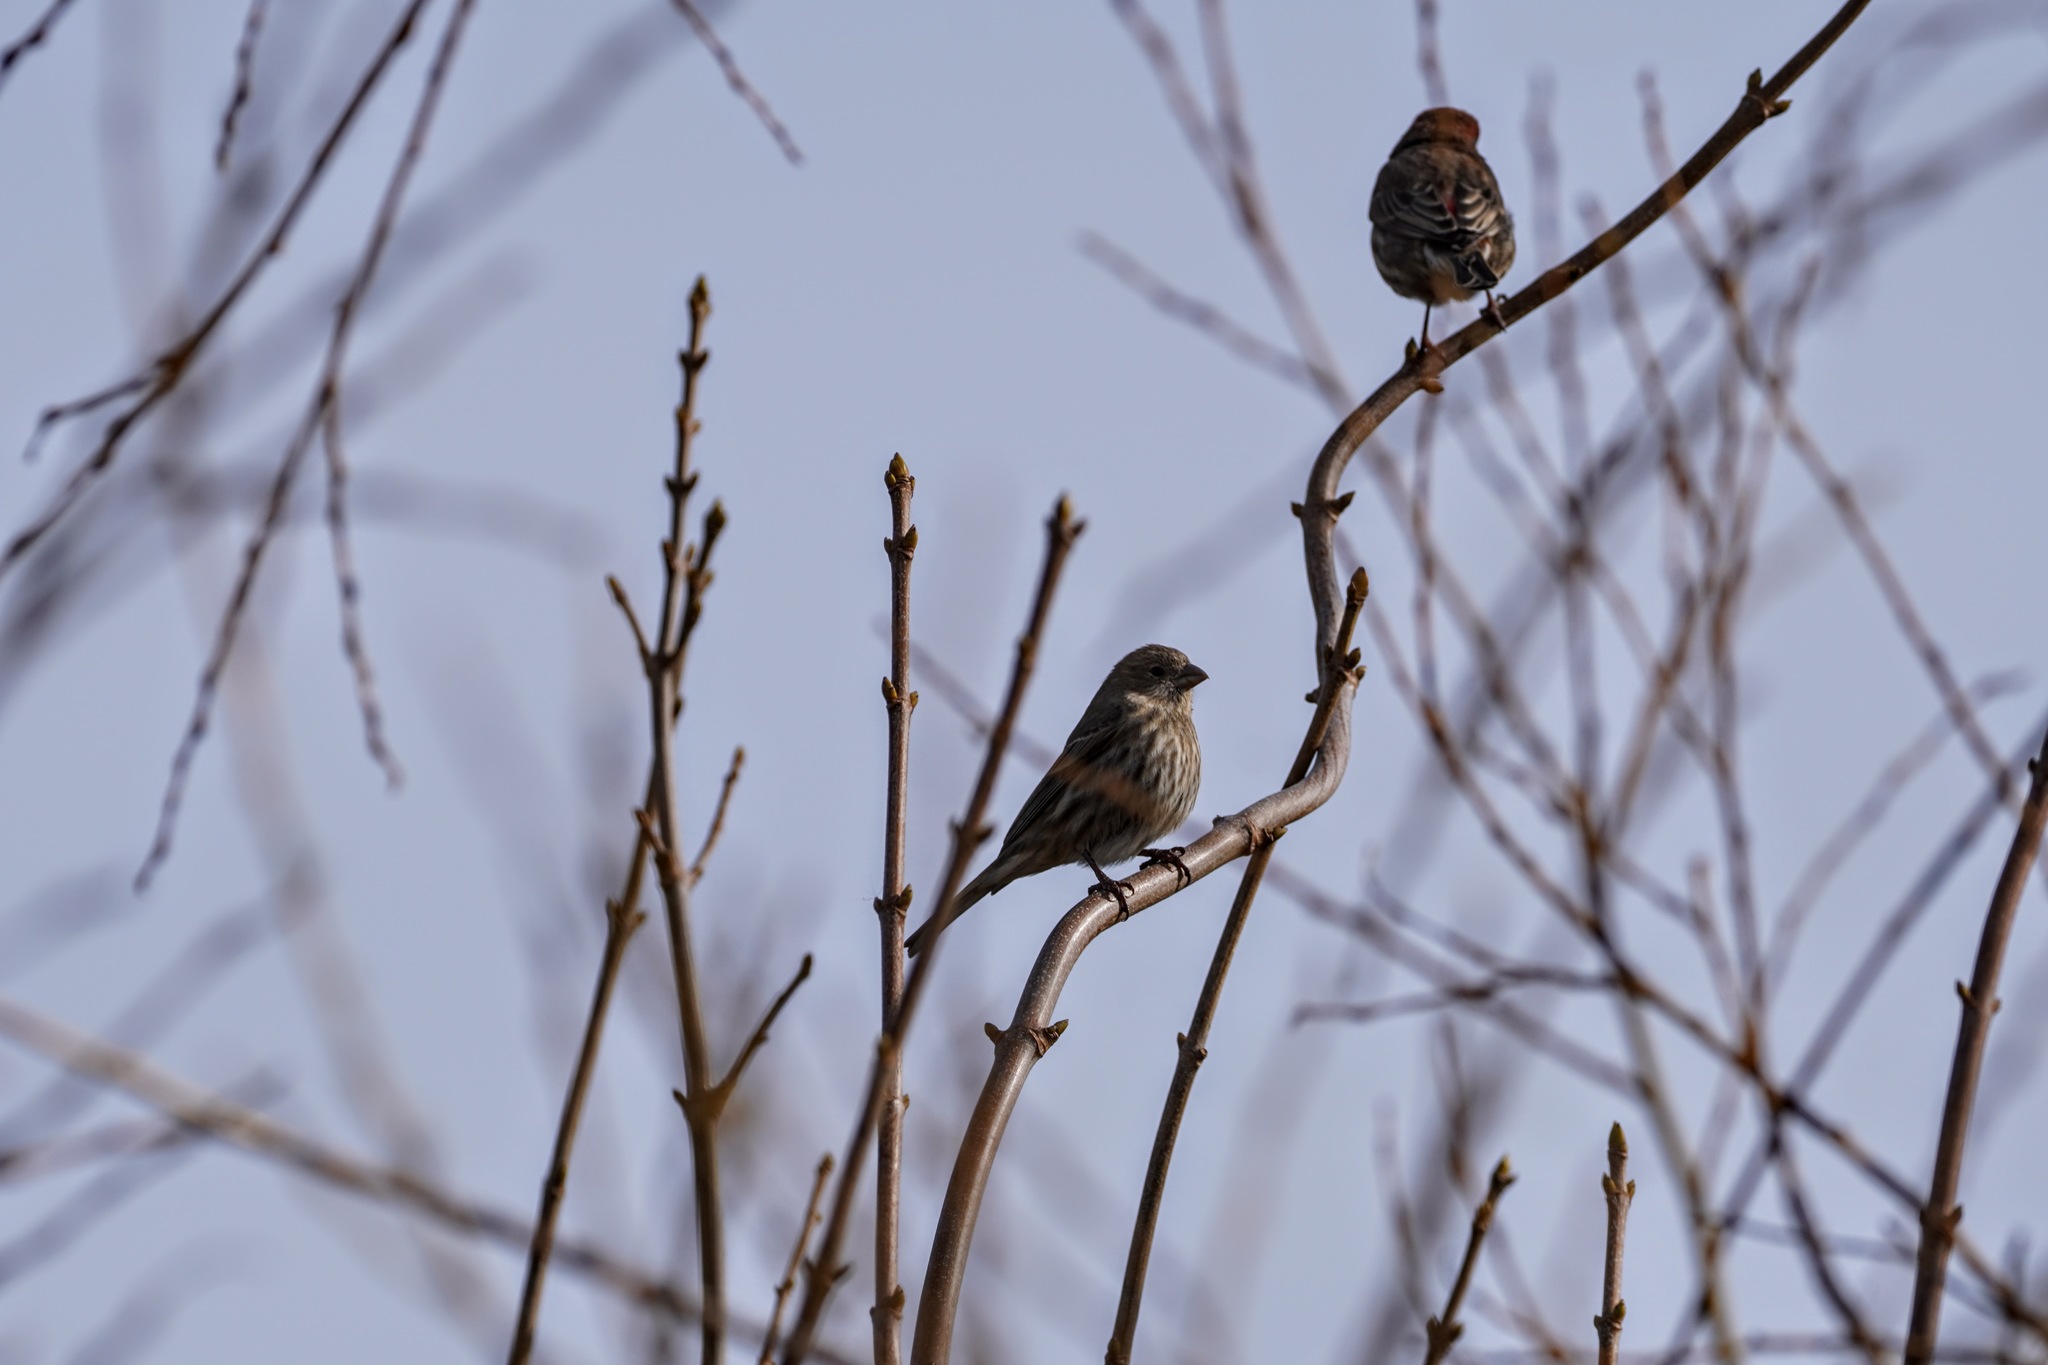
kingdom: Animalia
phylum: Chordata
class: Aves
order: Passeriformes
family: Fringillidae
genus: Haemorhous
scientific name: Haemorhous mexicanus
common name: House finch
